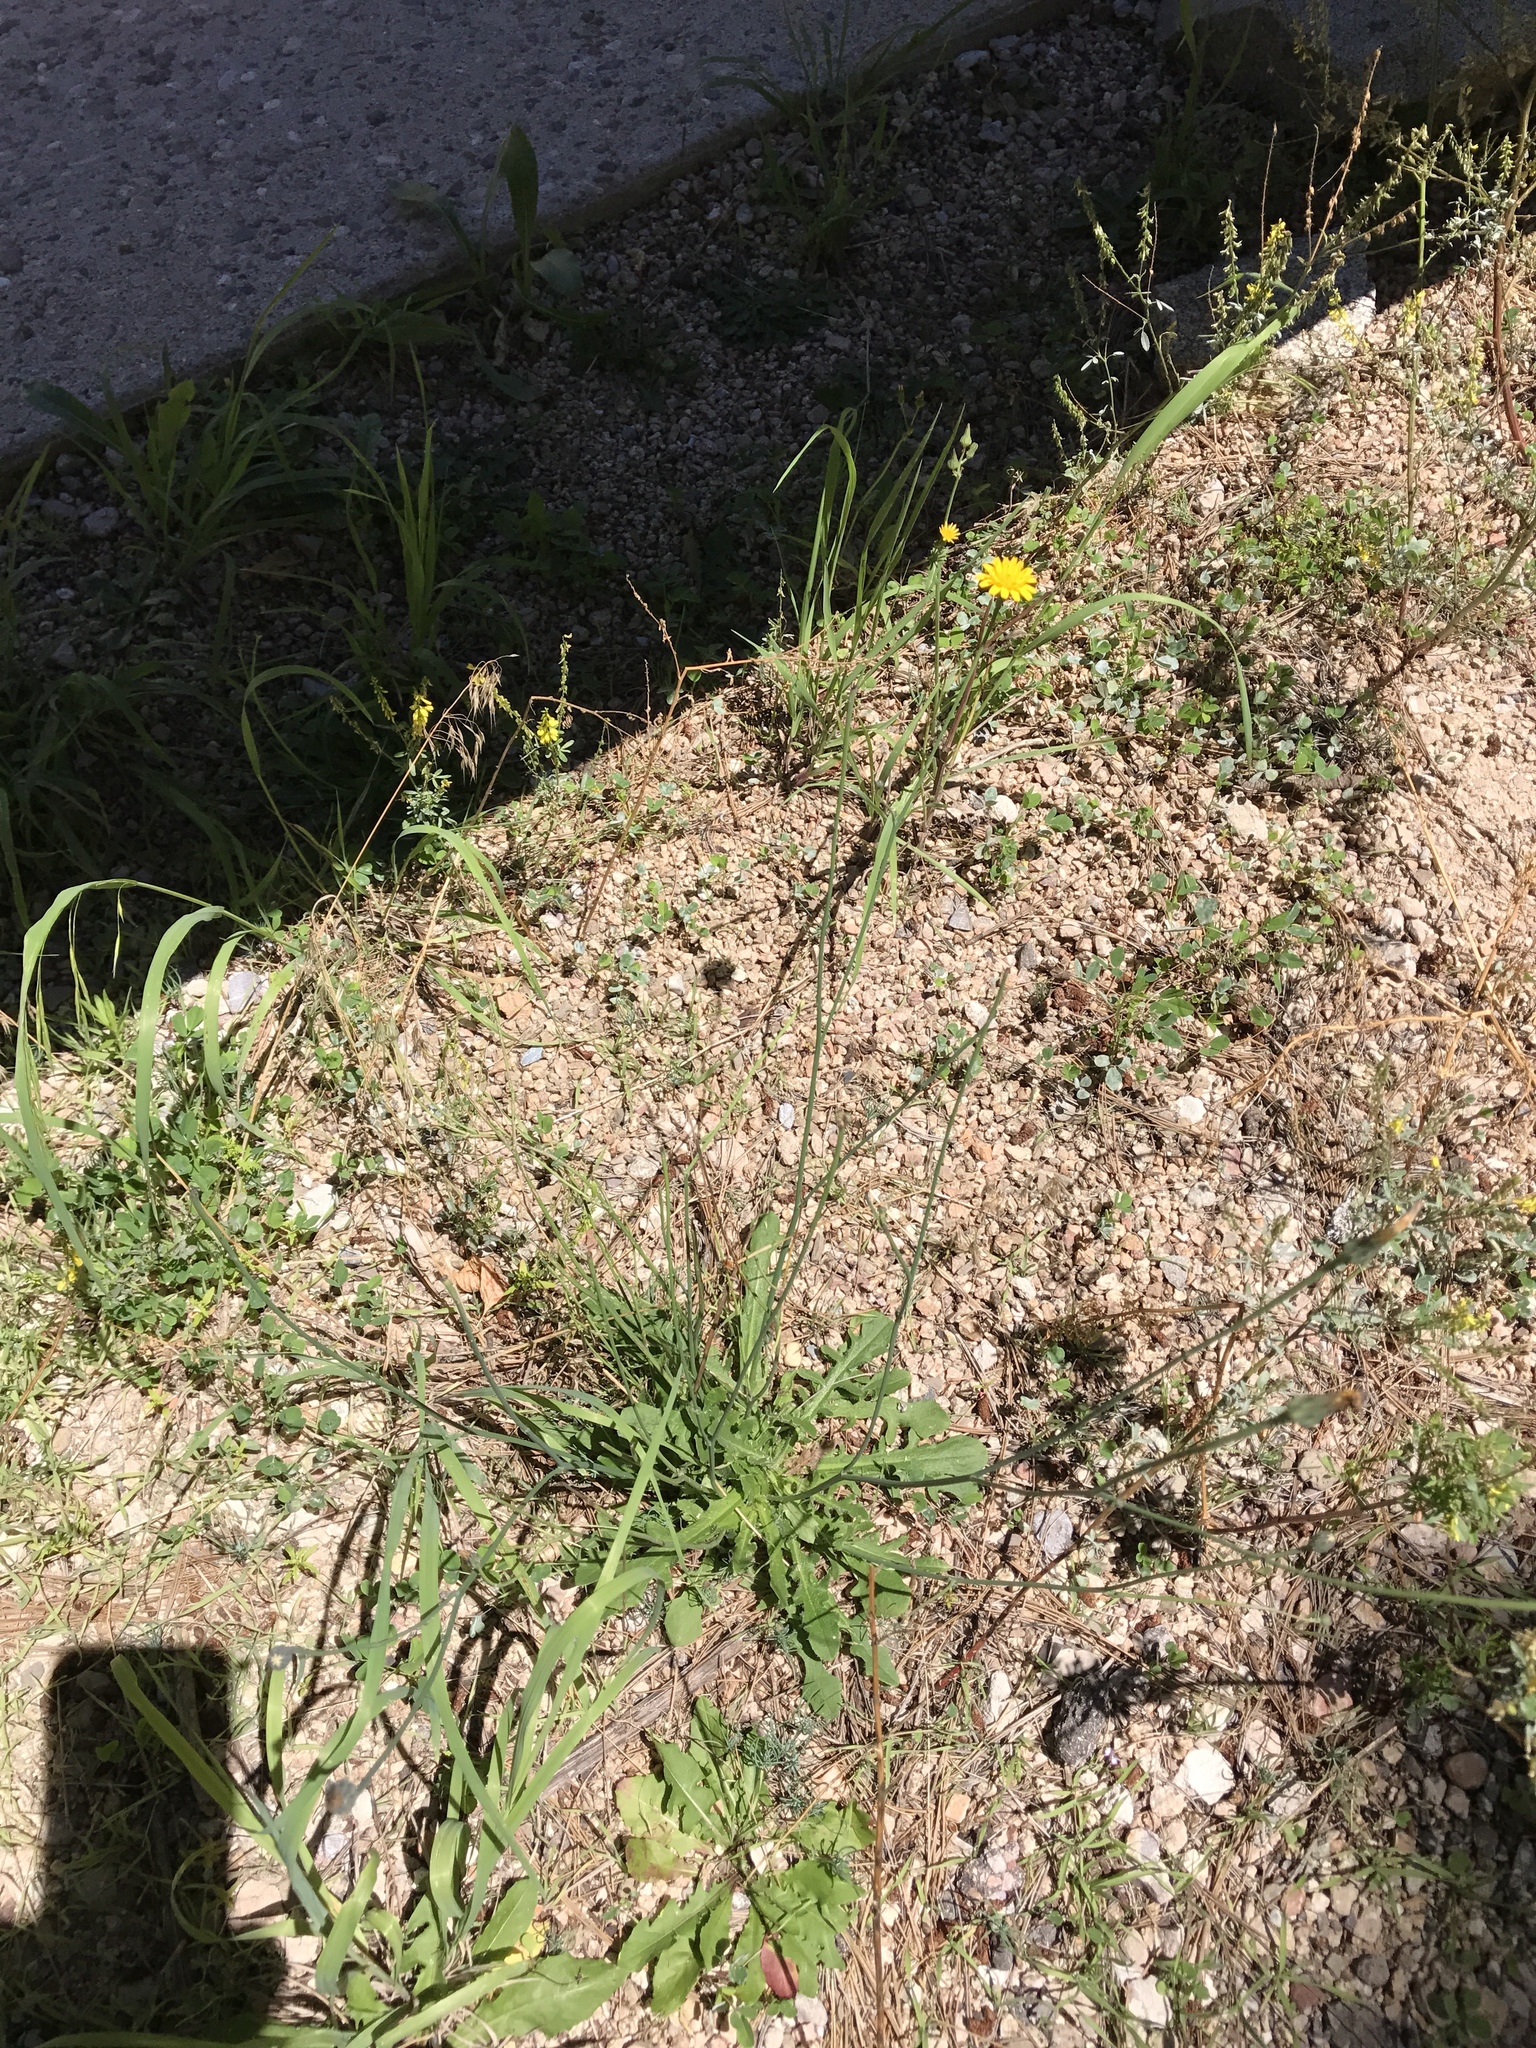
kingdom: Plantae
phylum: Tracheophyta
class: Magnoliopsida
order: Asterales
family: Asteraceae
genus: Hypochaeris
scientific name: Hypochaeris radicata
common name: Flatweed
